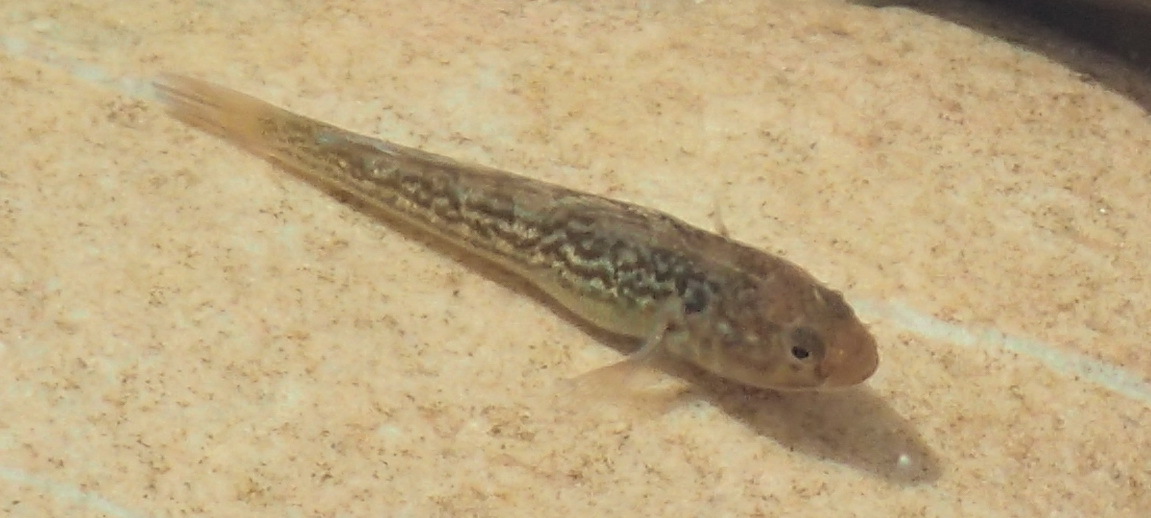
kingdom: Animalia
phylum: Chordata
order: Perciformes
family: Gobiidae
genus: Caffrogobius
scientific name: Caffrogobius caffer
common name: Banded goby
